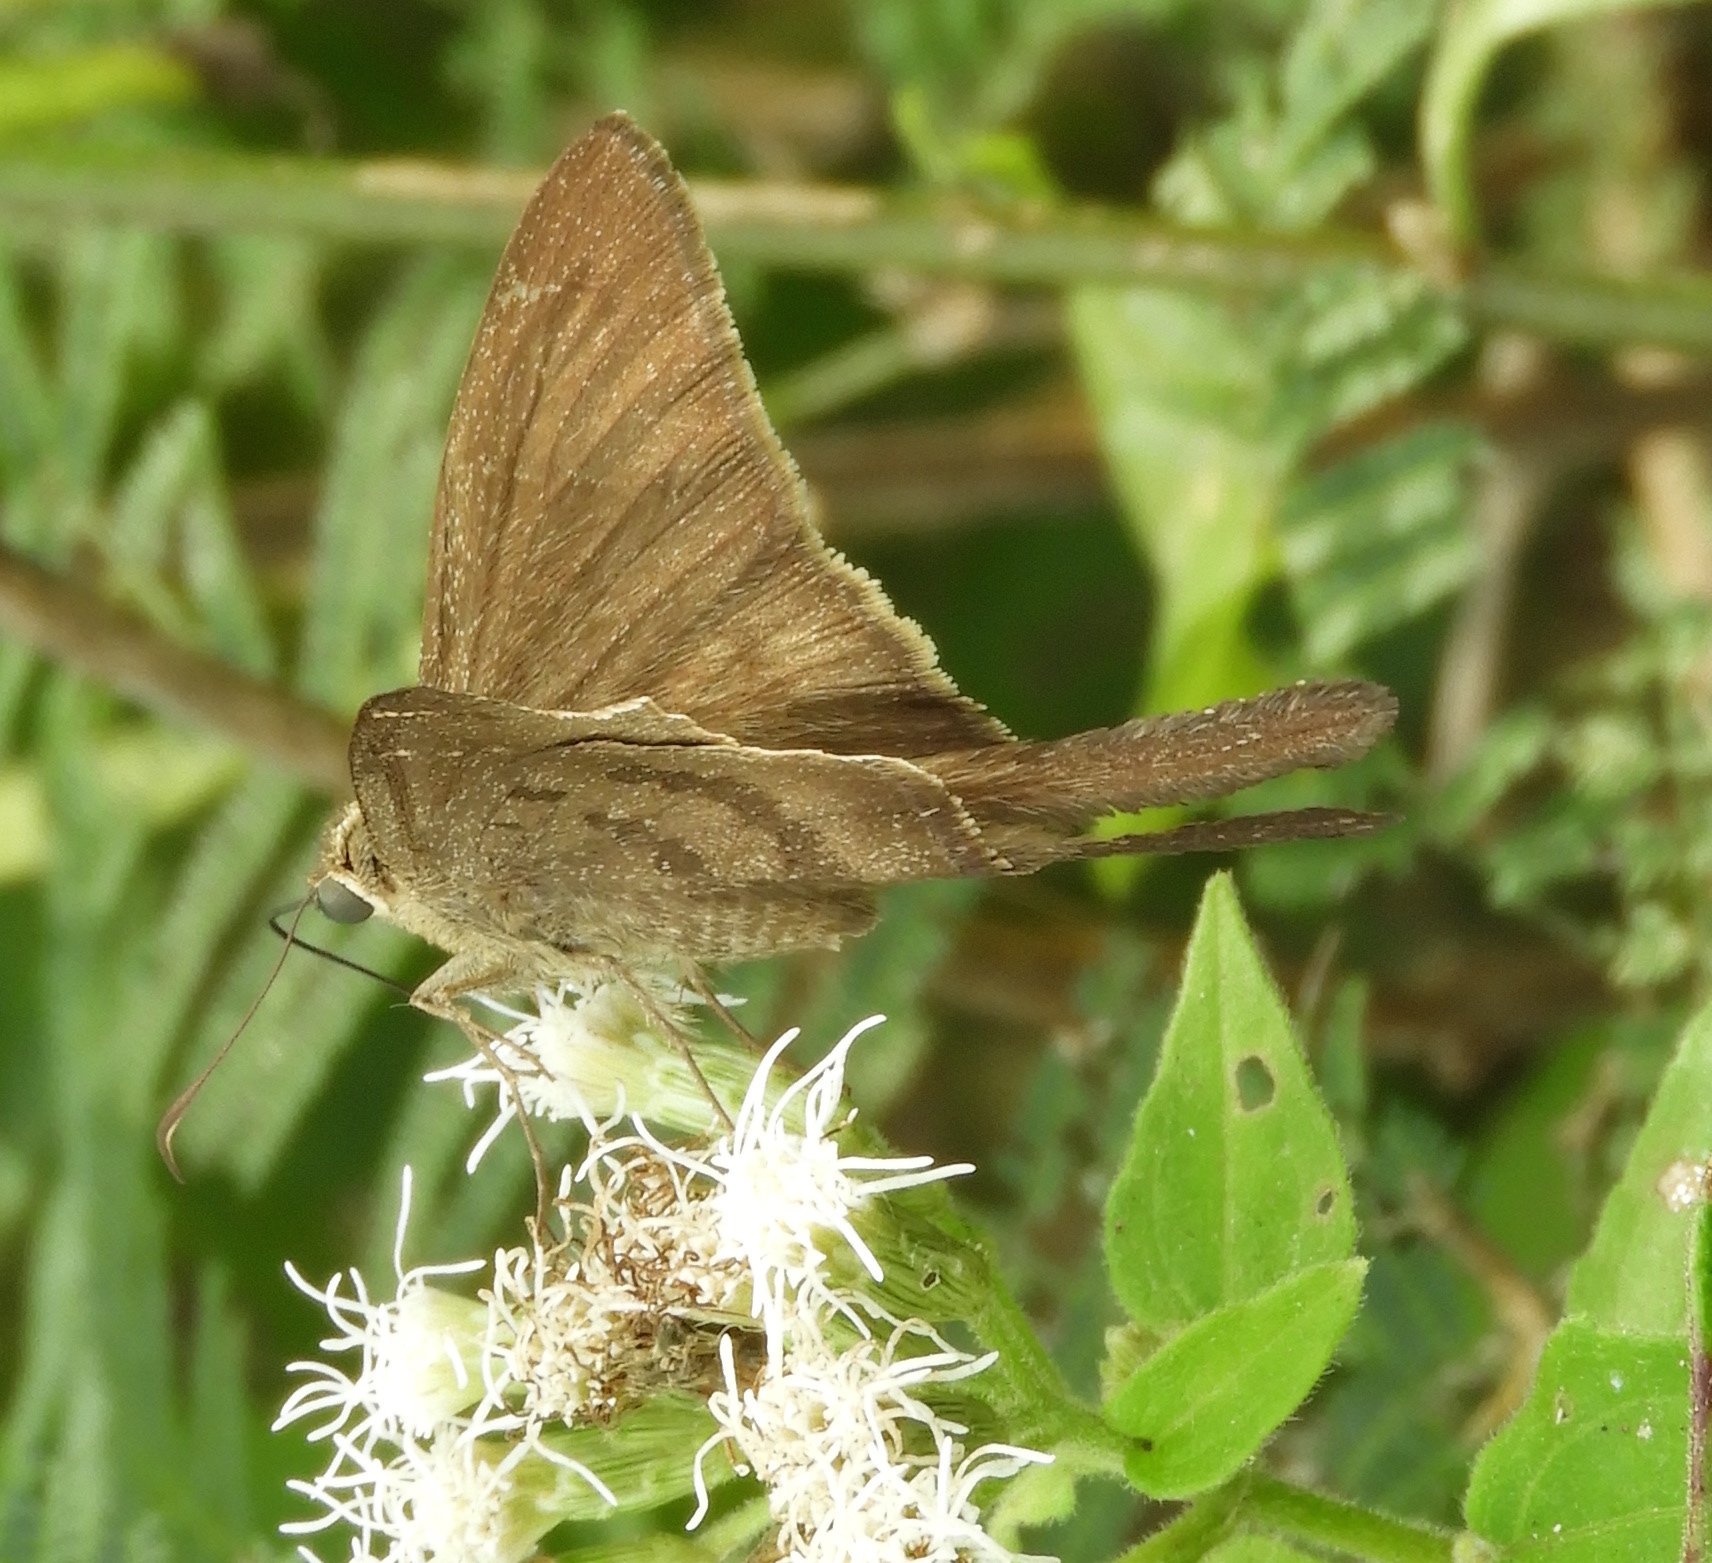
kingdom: Animalia
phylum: Arthropoda
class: Insecta
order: Lepidoptera
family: Hesperiidae
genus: Urbanus
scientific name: Urbanus procne
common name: Brown longtail
